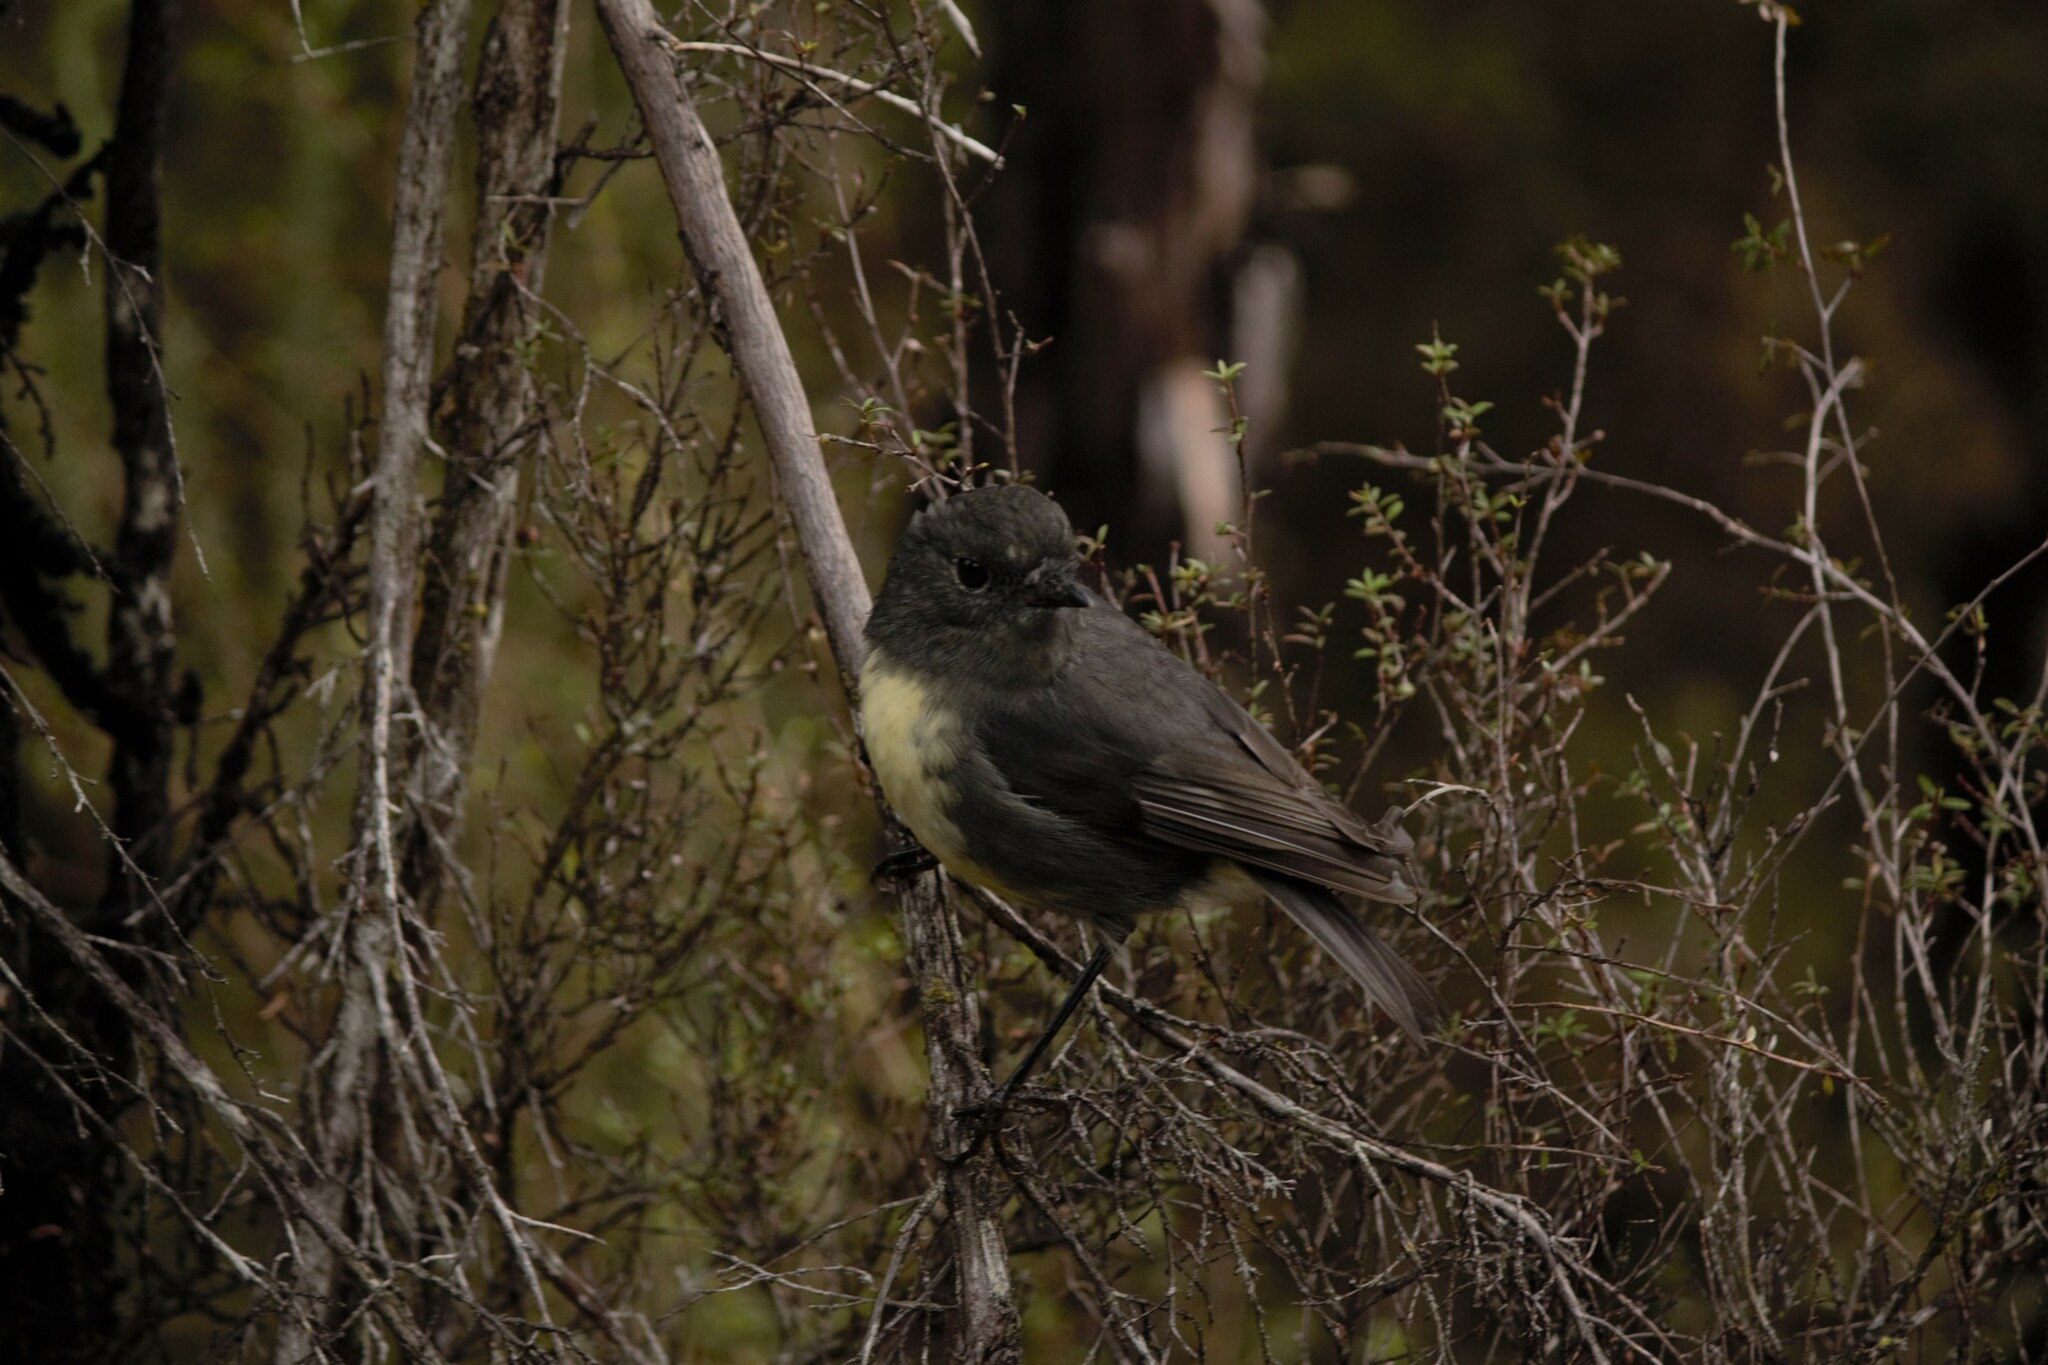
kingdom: Animalia
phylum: Chordata
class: Aves
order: Passeriformes
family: Petroicidae
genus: Petroica
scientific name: Petroica australis
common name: New zealand robin
